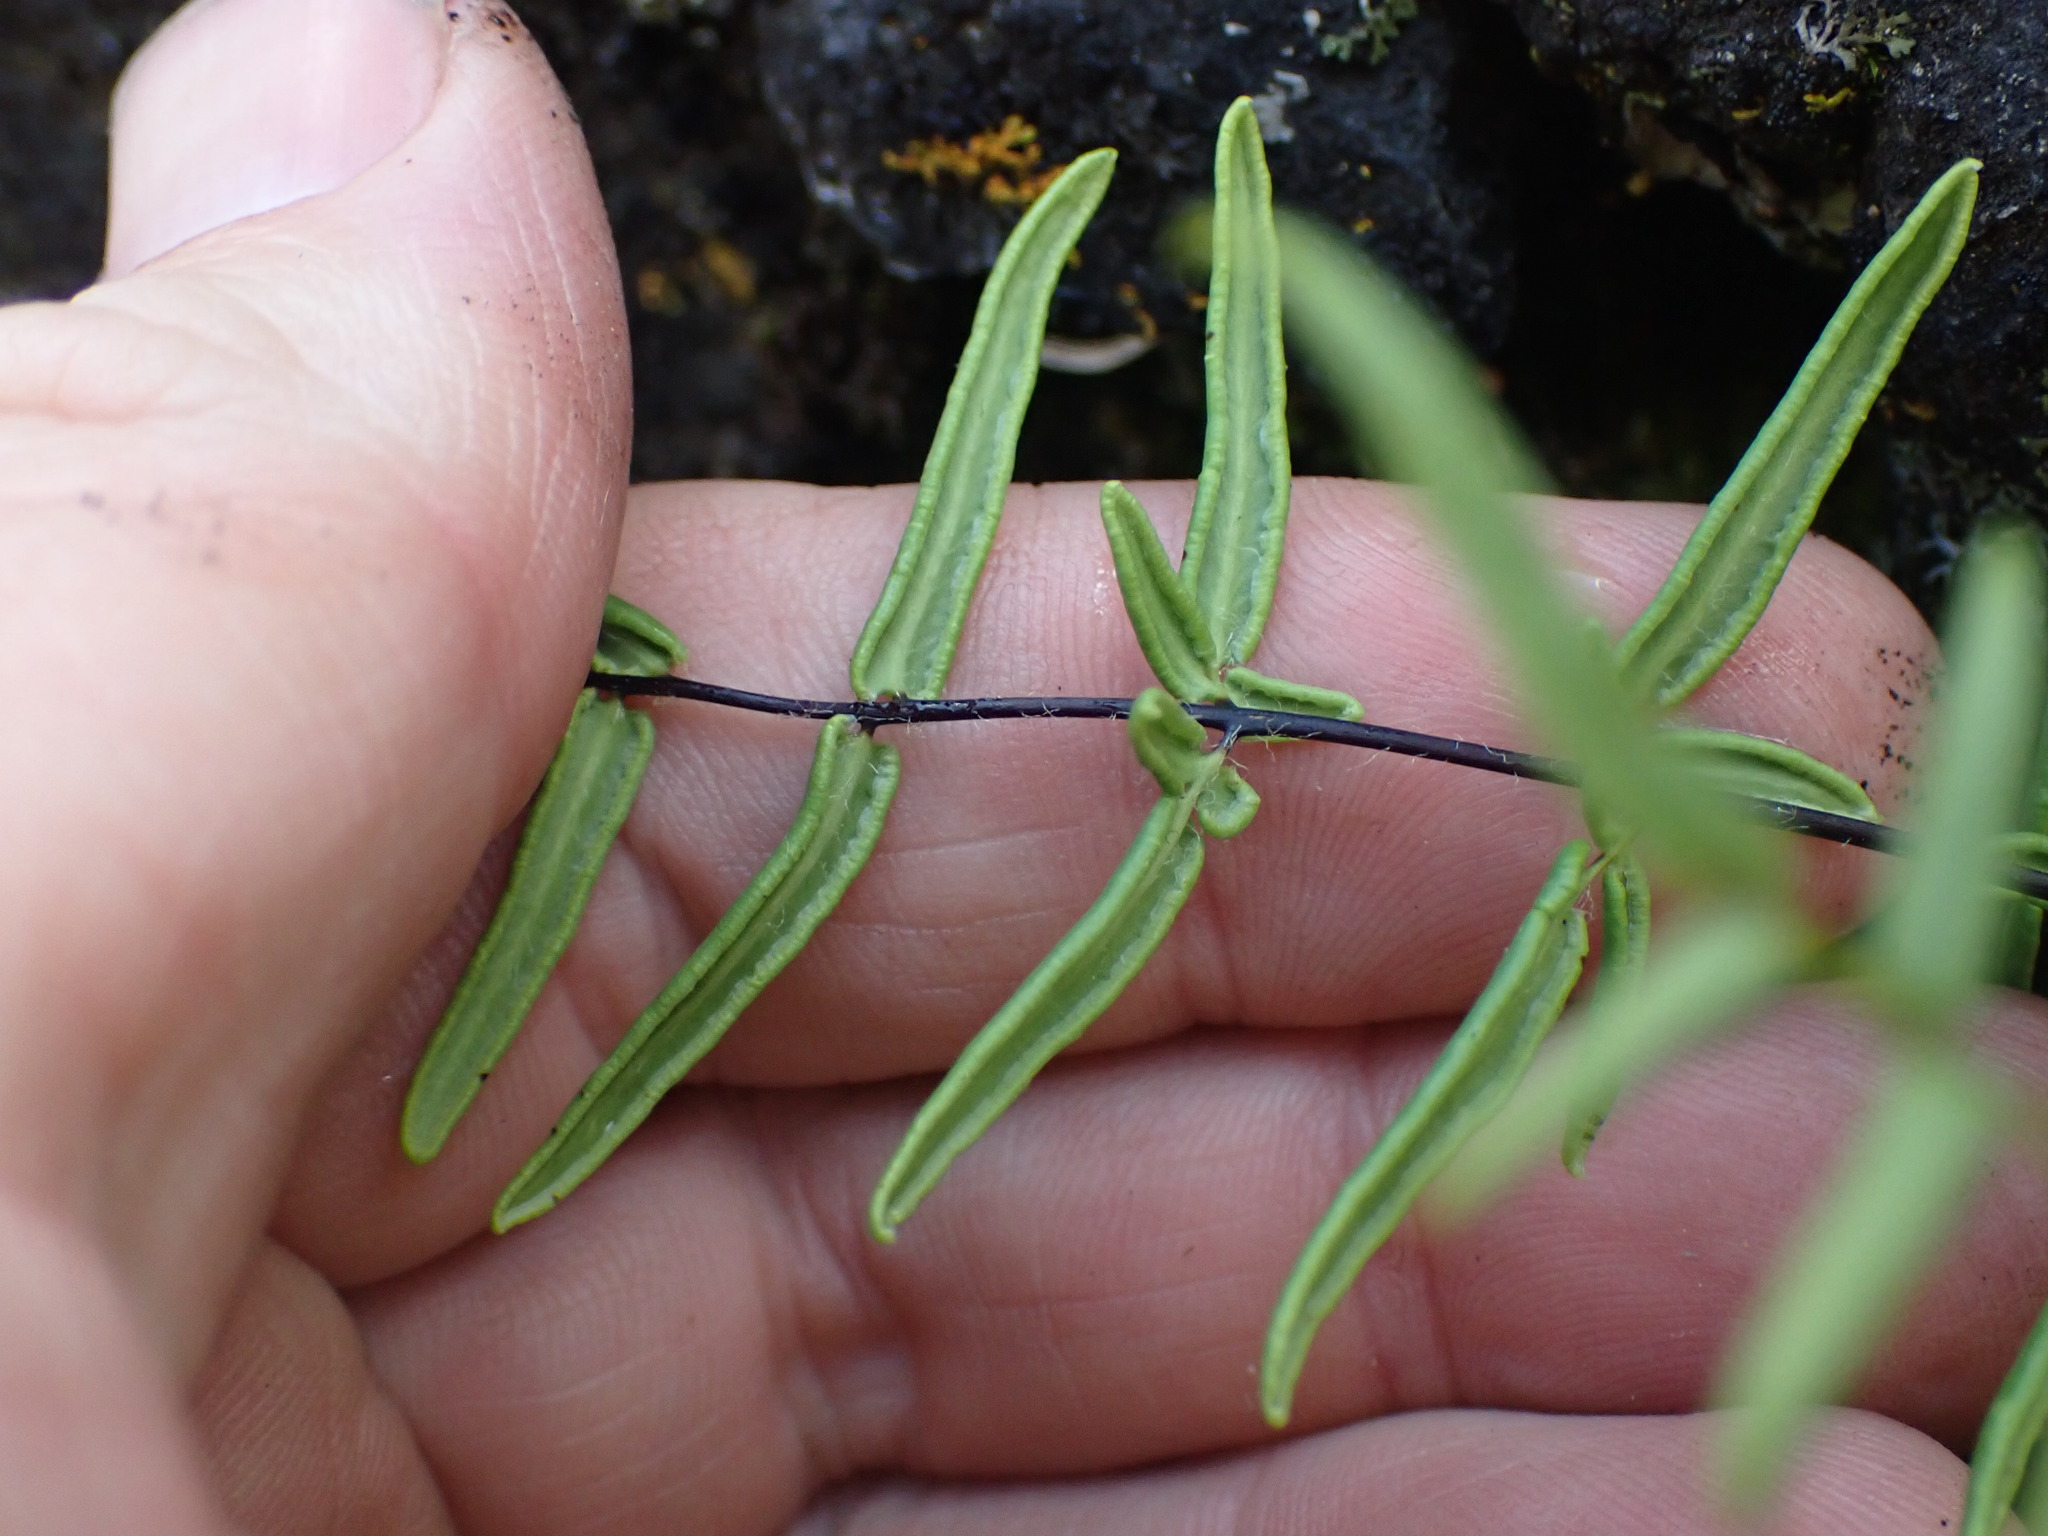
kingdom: Plantae
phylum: Tracheophyta
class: Polypodiopsida
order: Polypodiales
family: Pteridaceae
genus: Pellaea
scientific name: Pellaea gastonyi
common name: Gastony's cliffbrake
